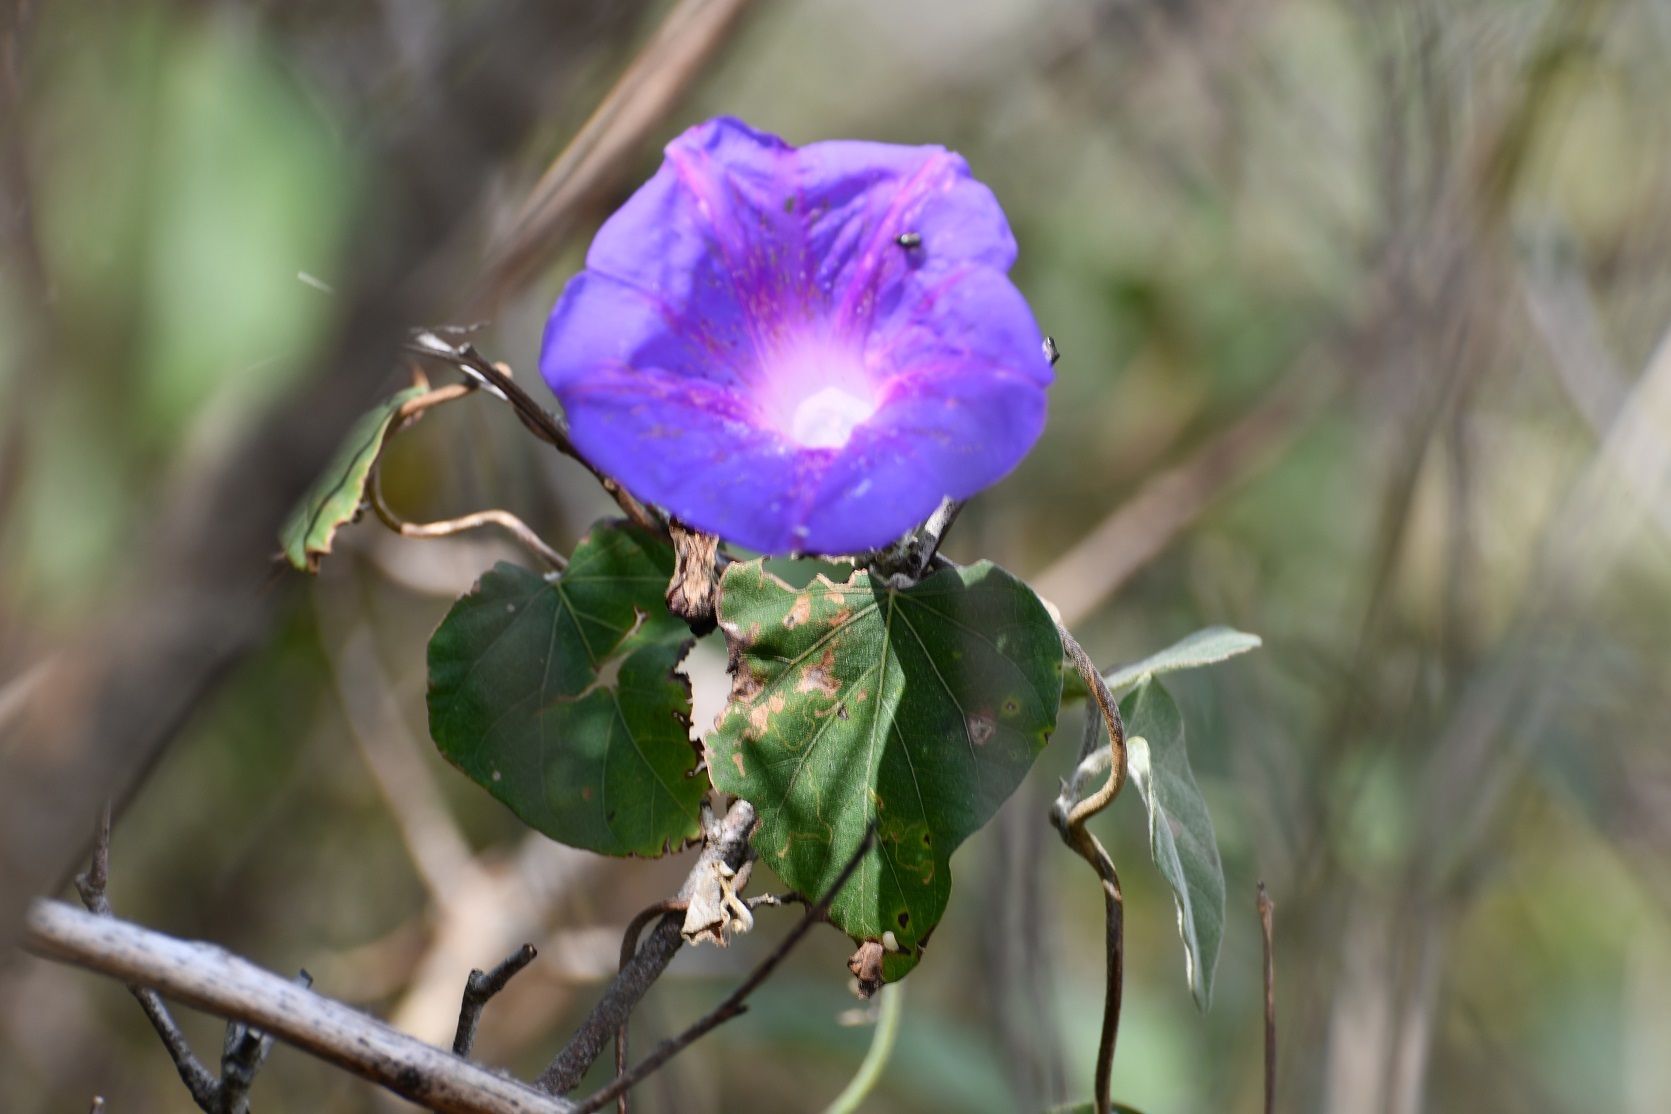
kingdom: Plantae
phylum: Tracheophyta
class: Magnoliopsida
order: Solanales
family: Convolvulaceae
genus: Ipomoea
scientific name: Ipomoea mitchelliae
